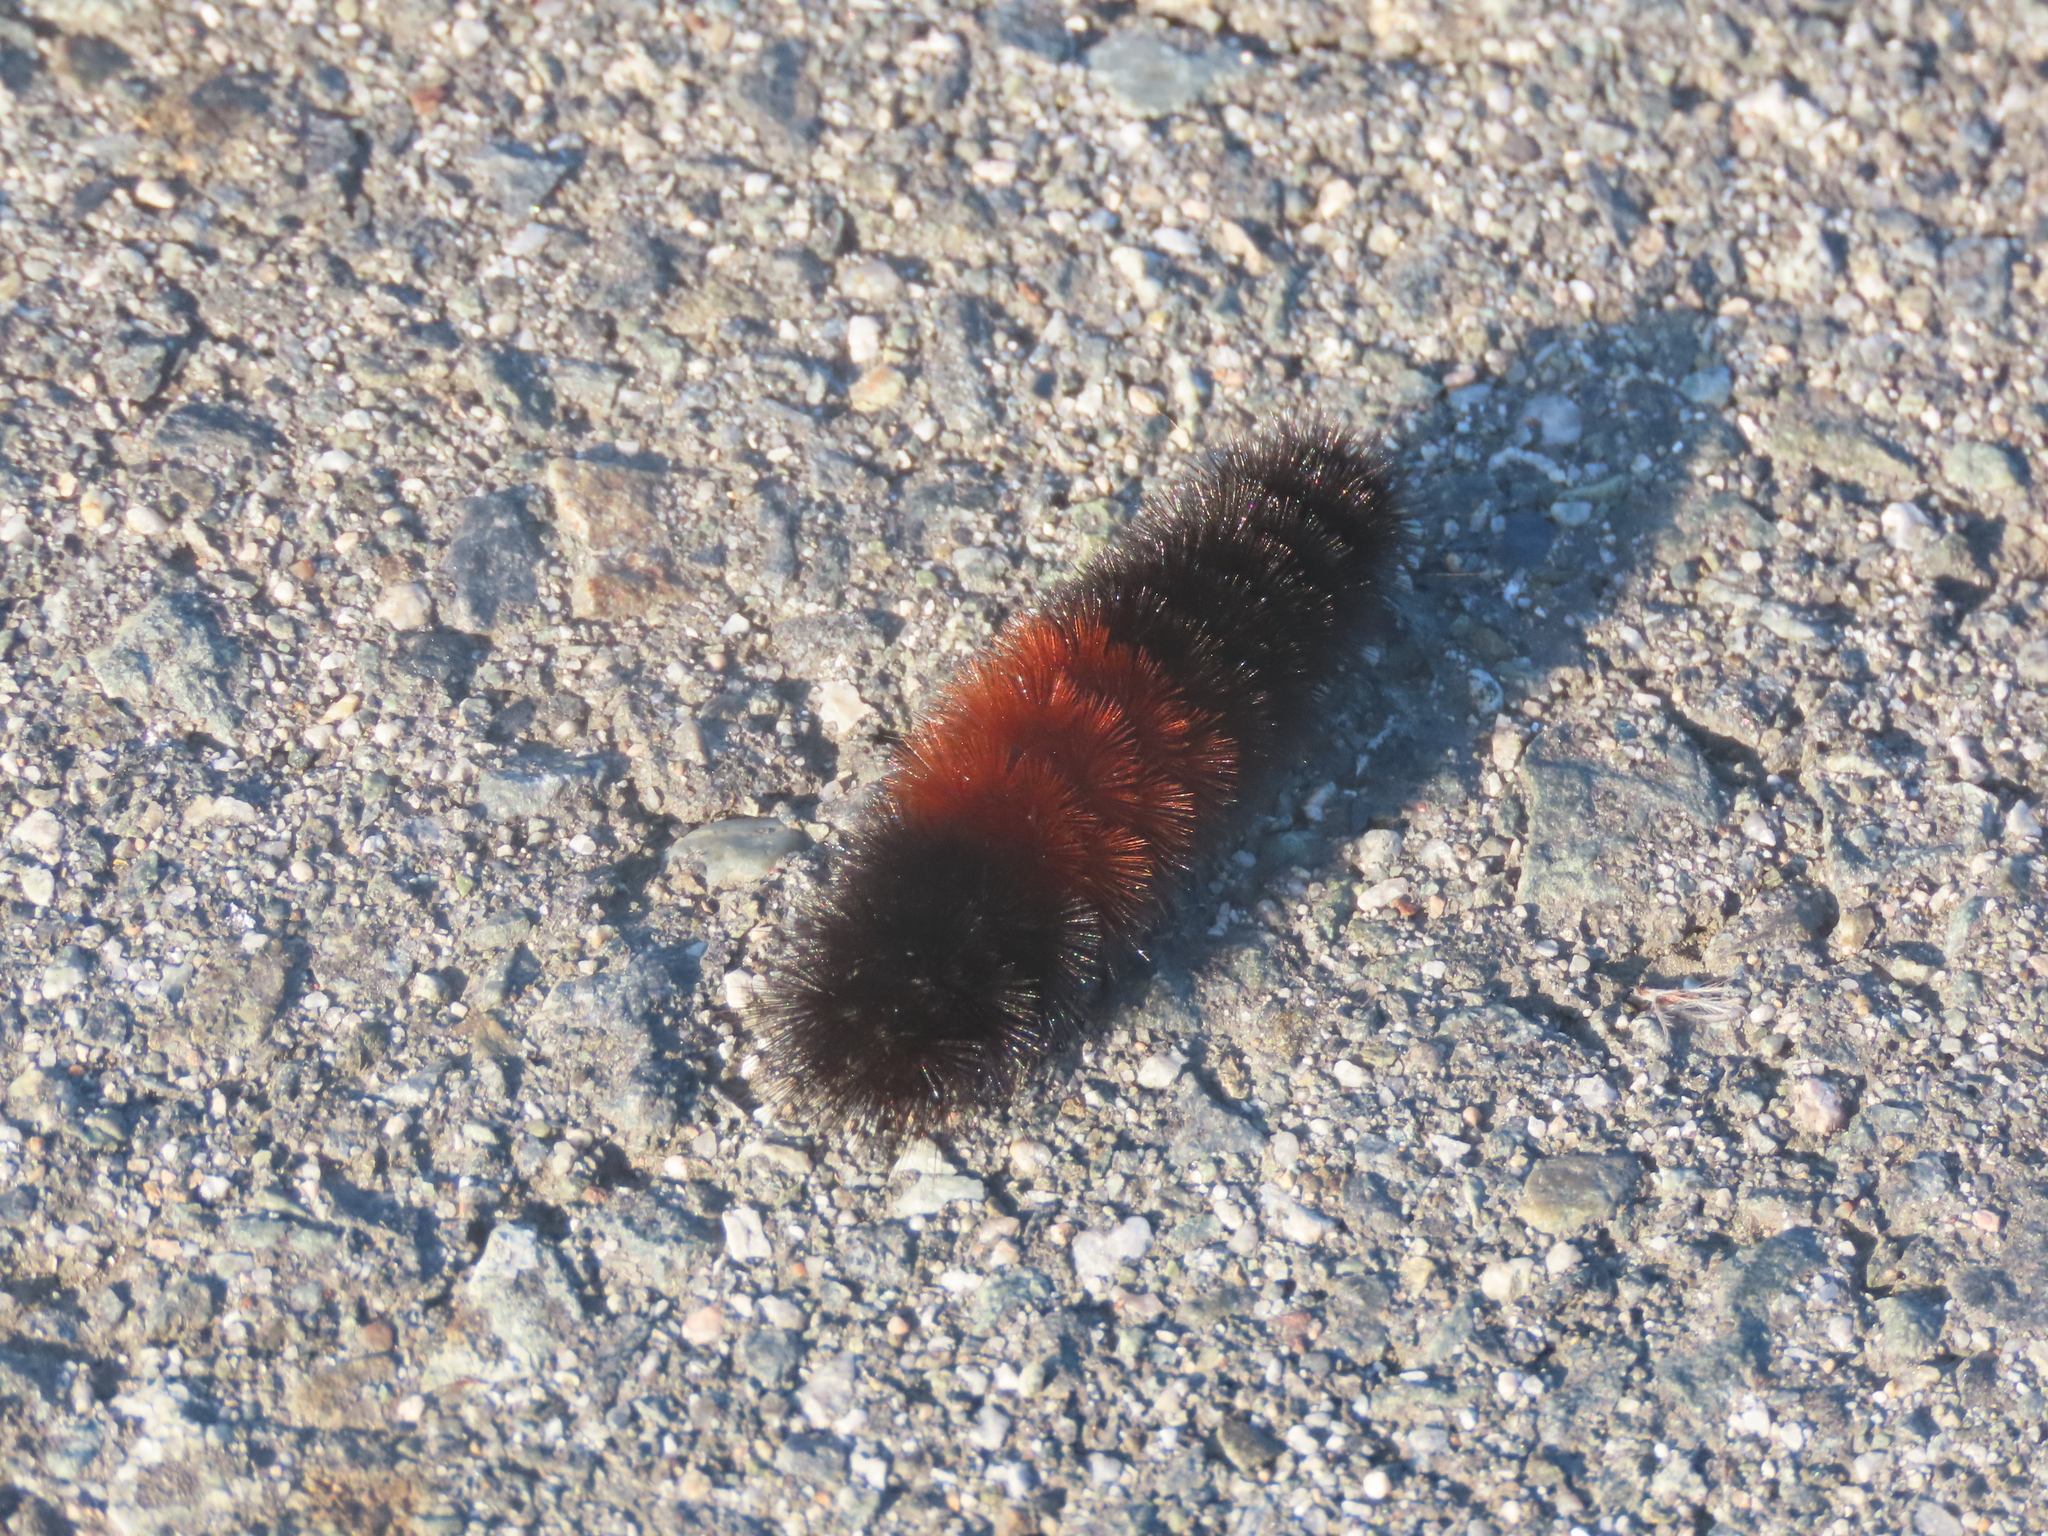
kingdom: Animalia
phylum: Arthropoda
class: Insecta
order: Lepidoptera
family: Erebidae
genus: Pyrrharctia
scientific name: Pyrrharctia isabella
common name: Isabella tiger moth
